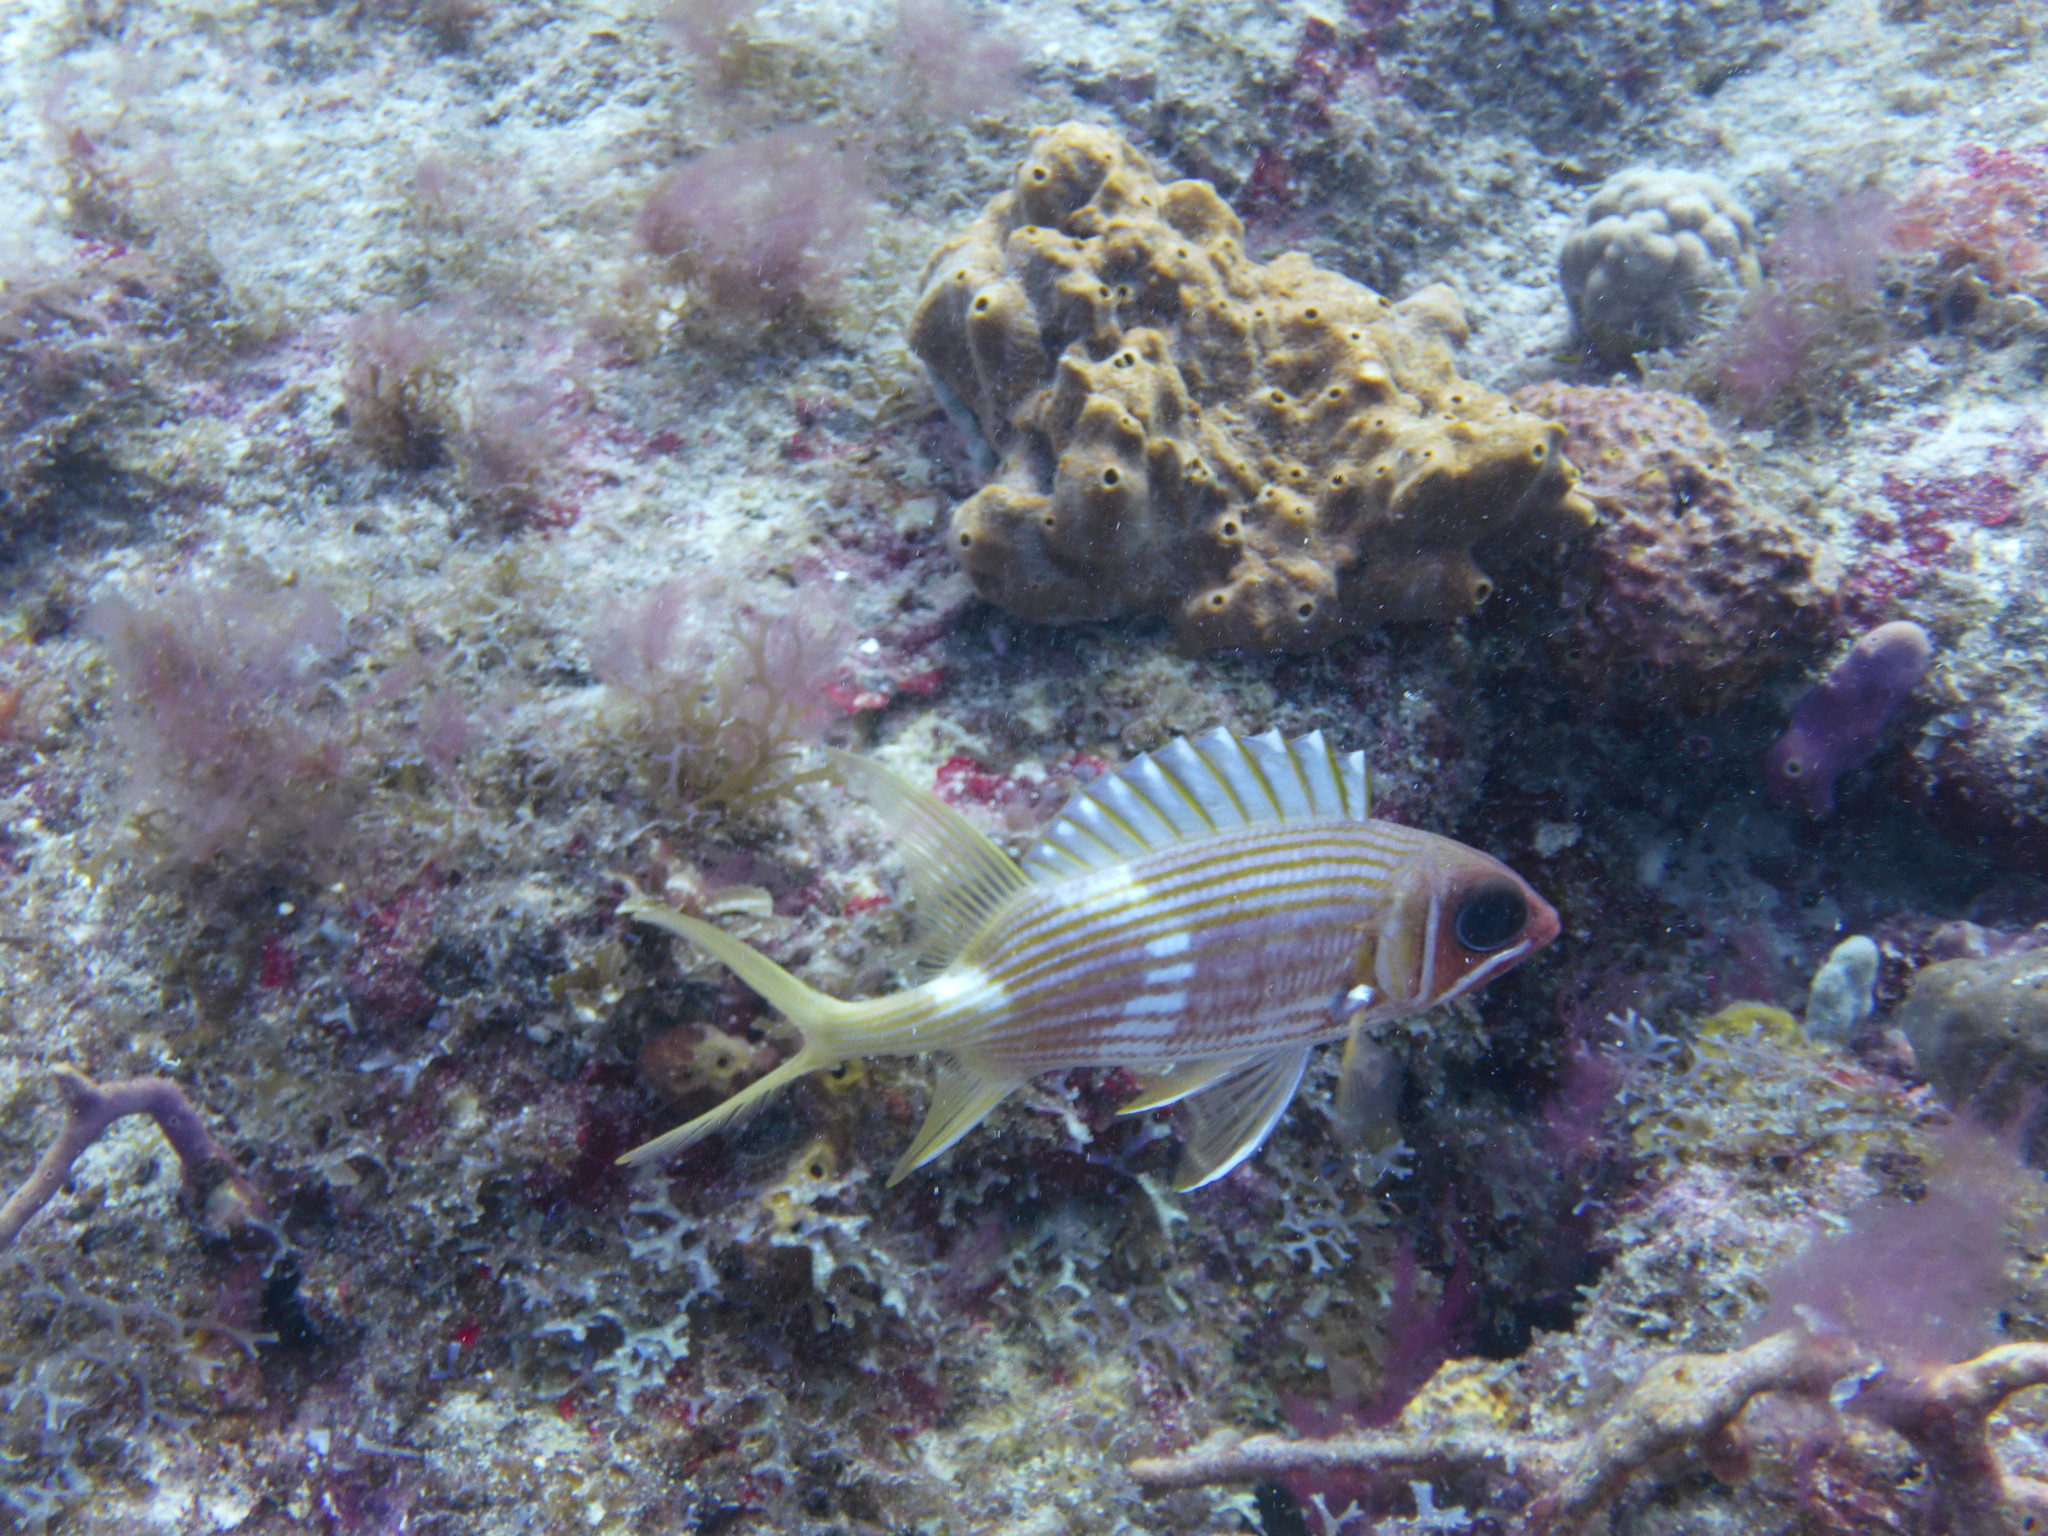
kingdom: Animalia
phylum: Chordata
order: Beryciformes
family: Holocentridae
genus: Holocentrus
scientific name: Holocentrus rufus
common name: Longspine squirrelfish
